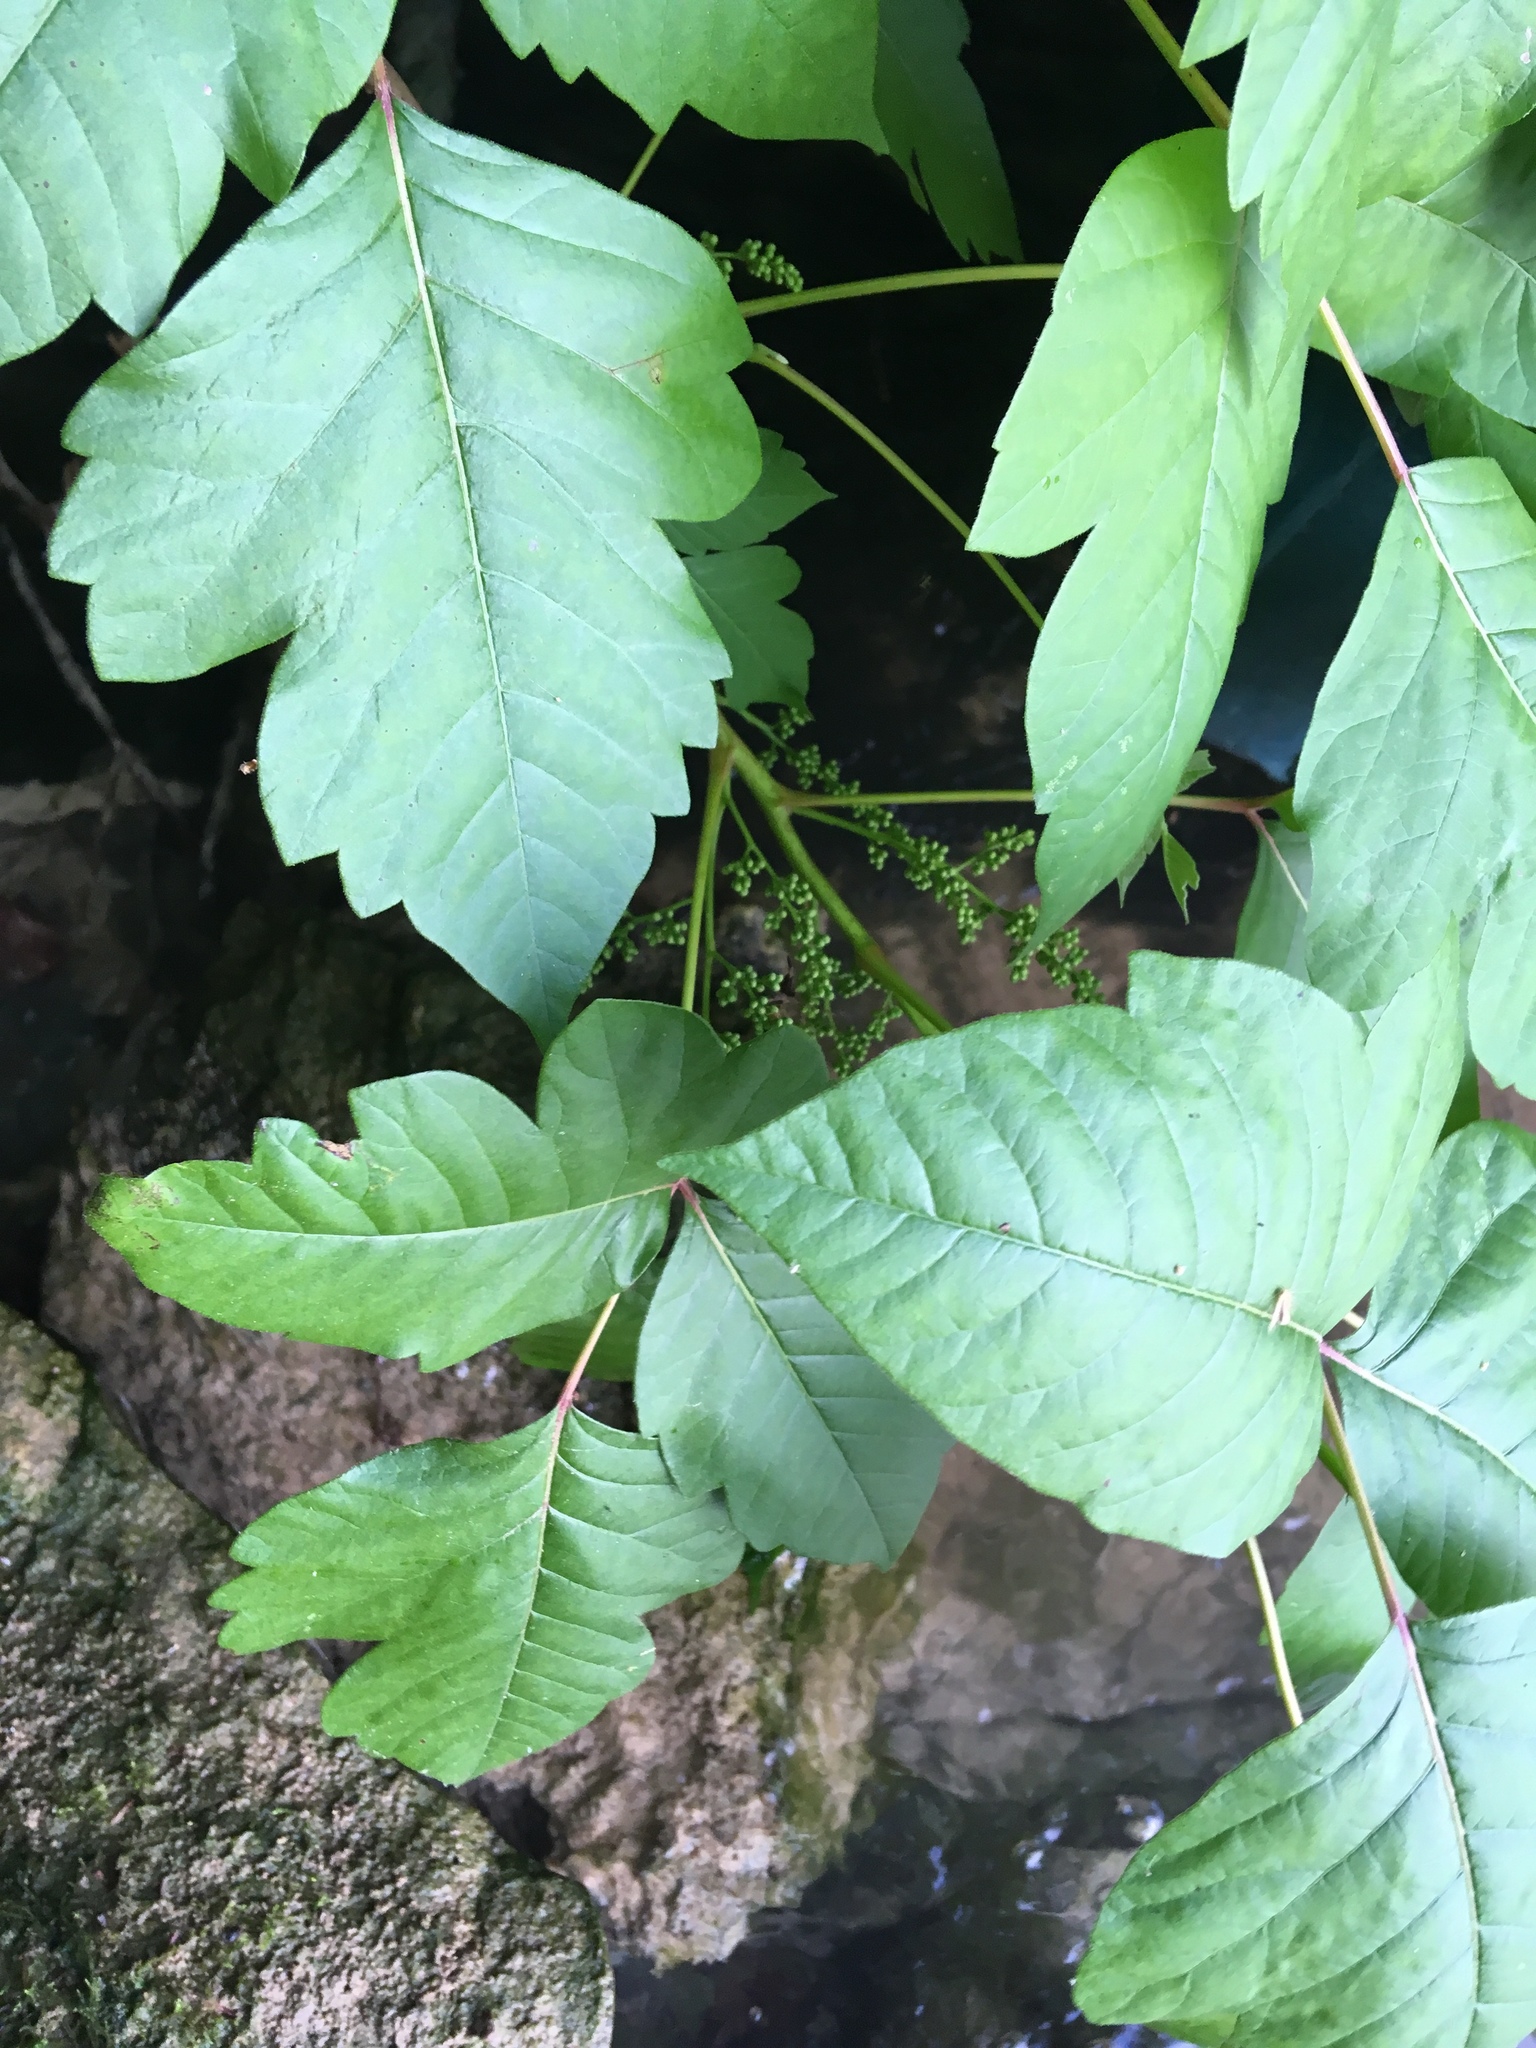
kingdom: Plantae
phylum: Tracheophyta
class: Magnoliopsida
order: Sapindales
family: Anacardiaceae
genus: Toxicodendron
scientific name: Toxicodendron radicans
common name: Poison ivy
